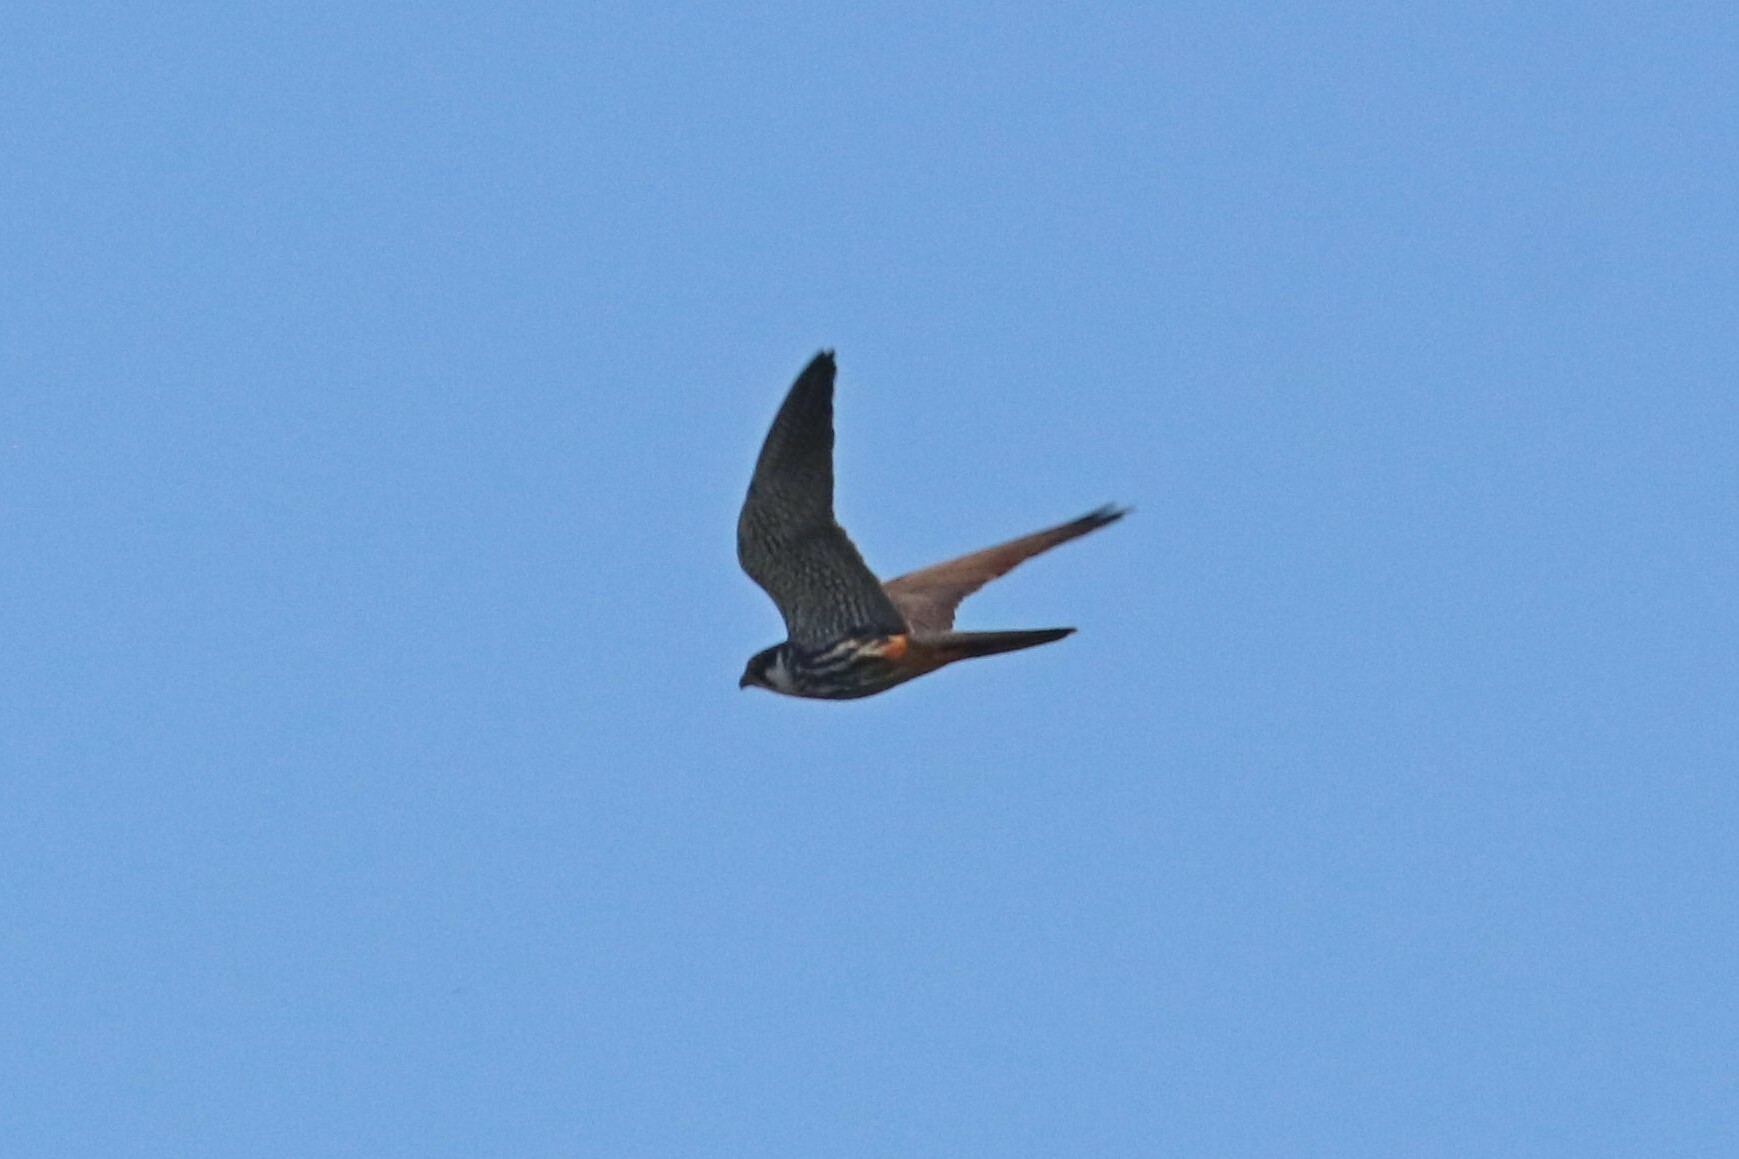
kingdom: Animalia
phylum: Chordata
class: Aves
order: Falconiformes
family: Falconidae
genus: Falco
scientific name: Falco subbuteo
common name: Eurasian hobby
